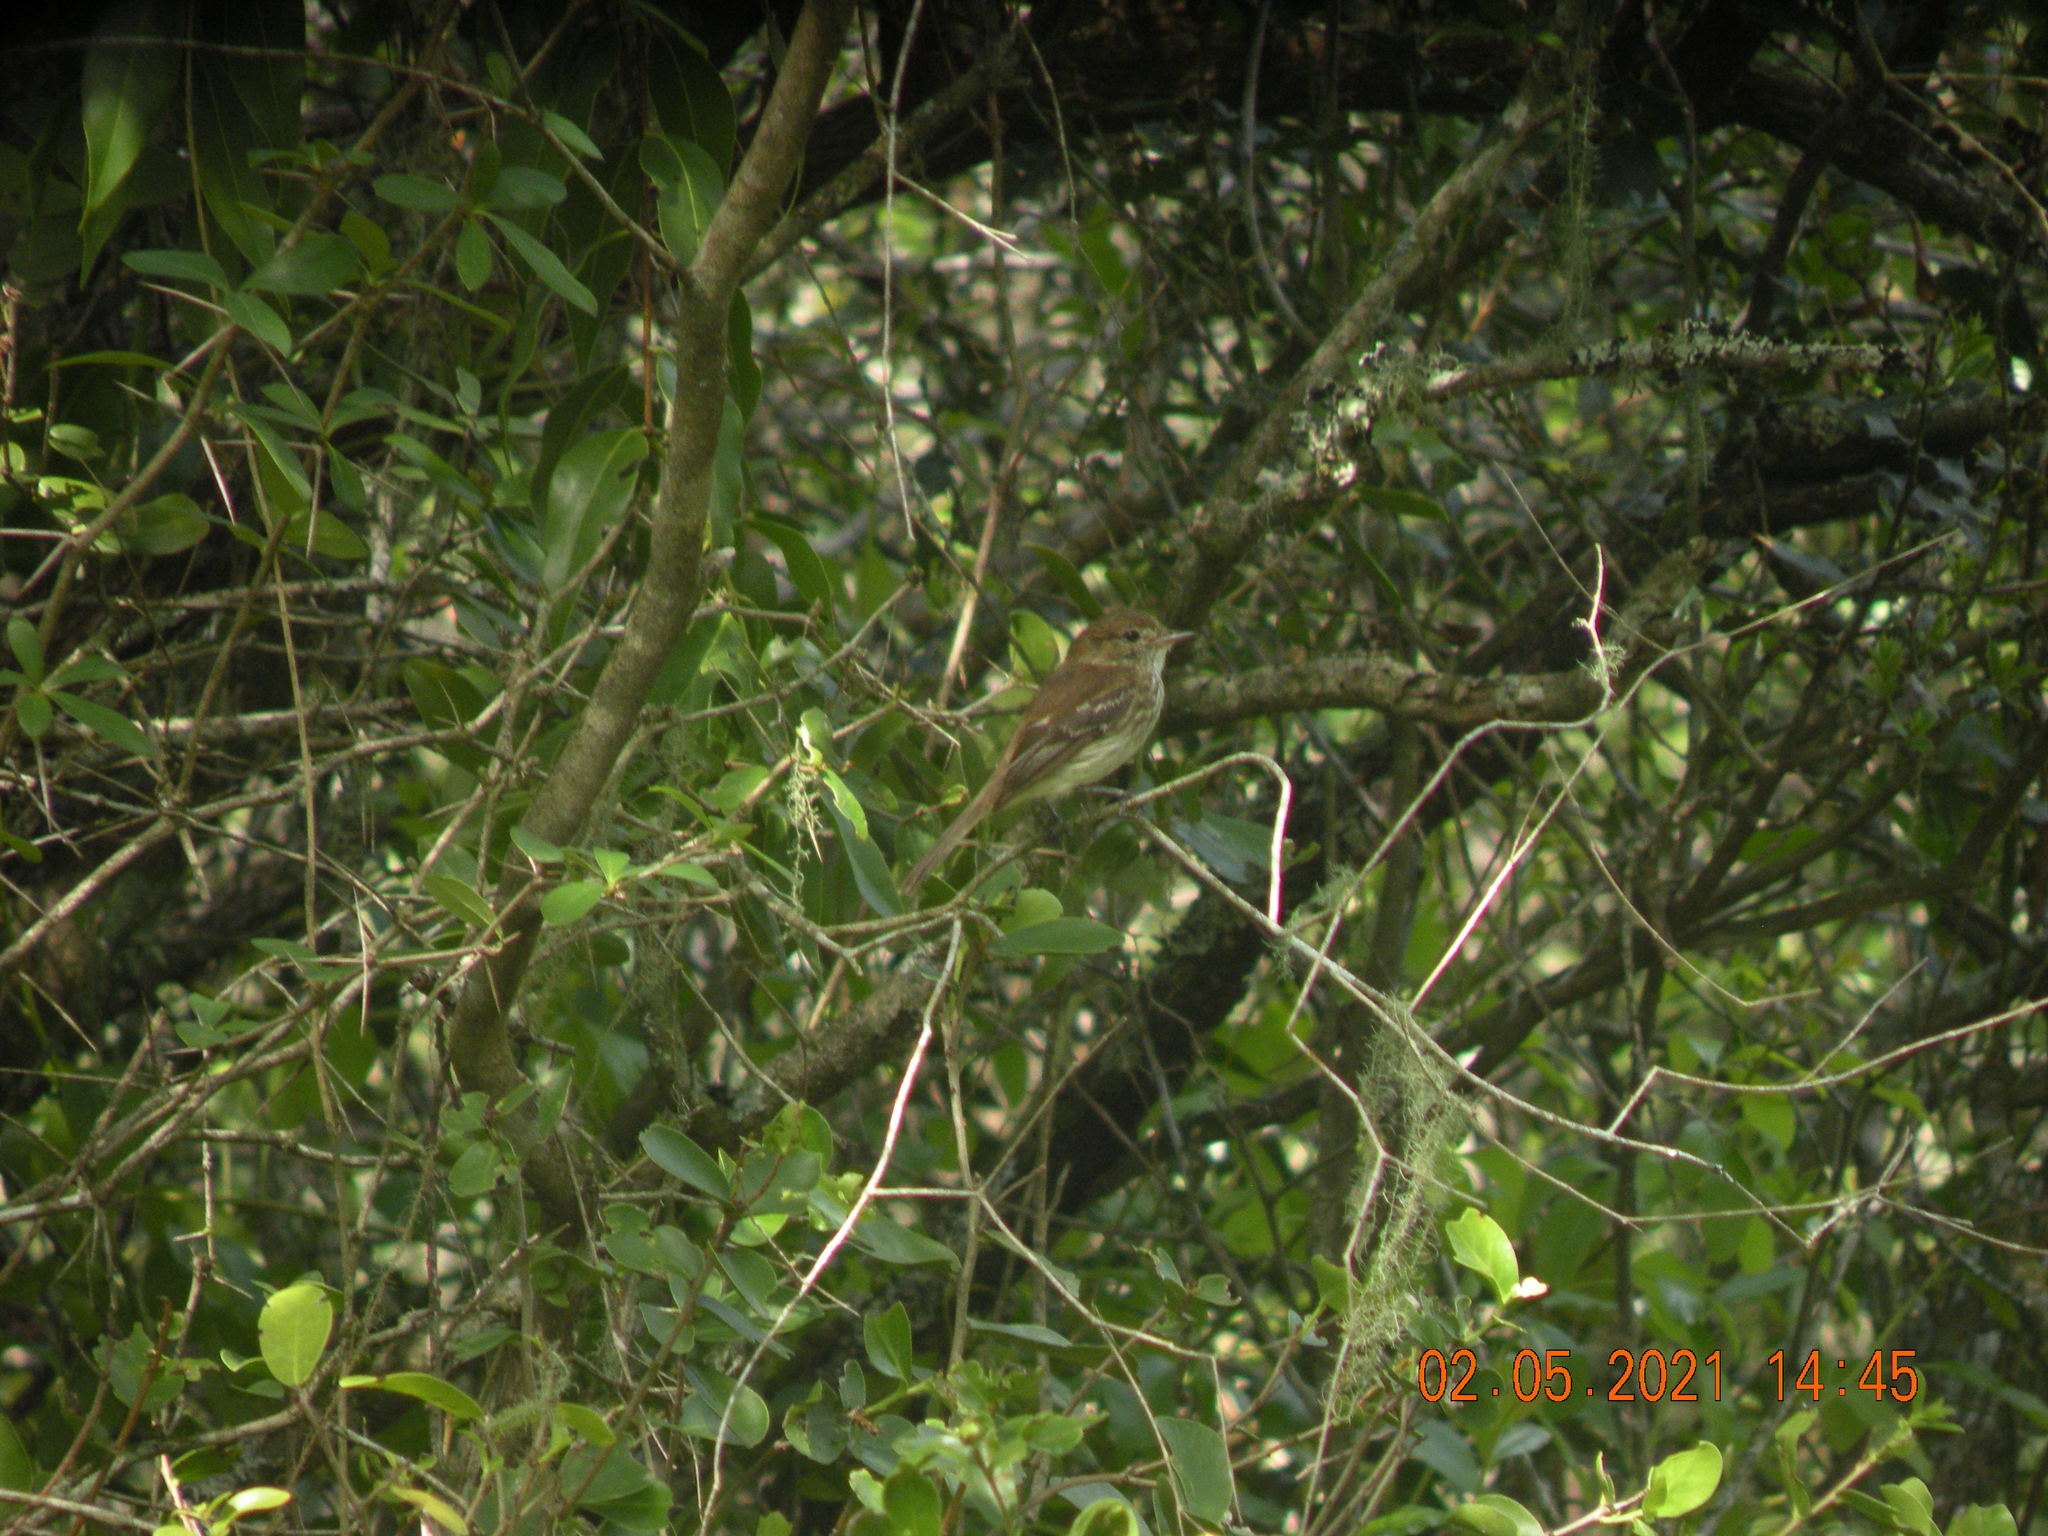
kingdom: Animalia
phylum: Chordata
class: Aves
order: Passeriformes
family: Tyrannidae
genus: Myiophobus
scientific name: Myiophobus fasciatus
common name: Bran-colored flycatcher
